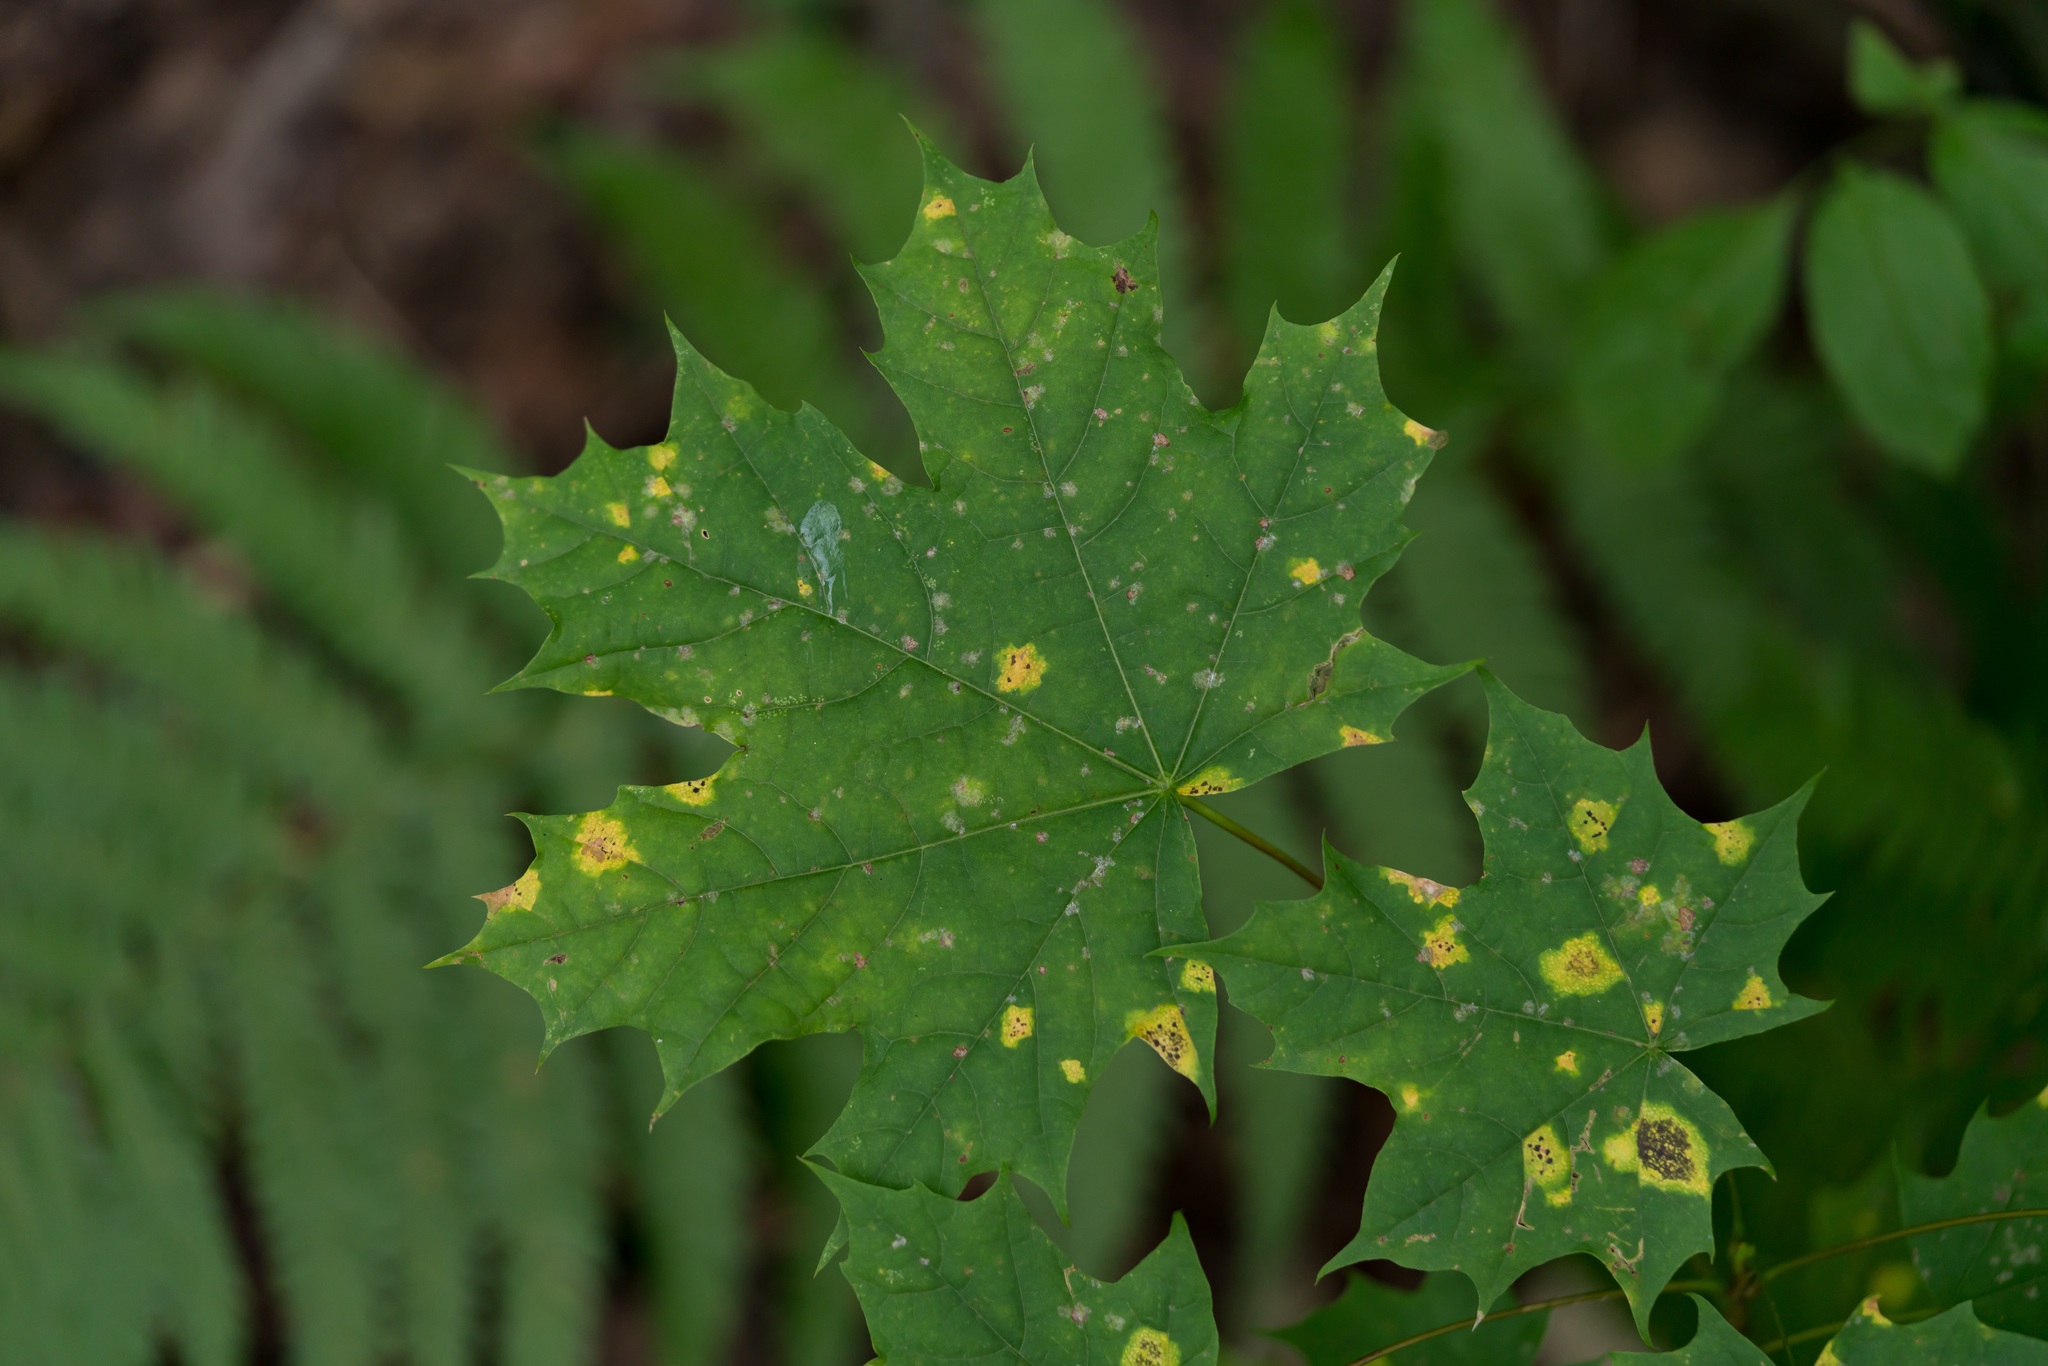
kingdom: Plantae
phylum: Tracheophyta
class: Magnoliopsida
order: Sapindales
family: Sapindaceae
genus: Acer
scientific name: Acer platanoides
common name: Norway maple
